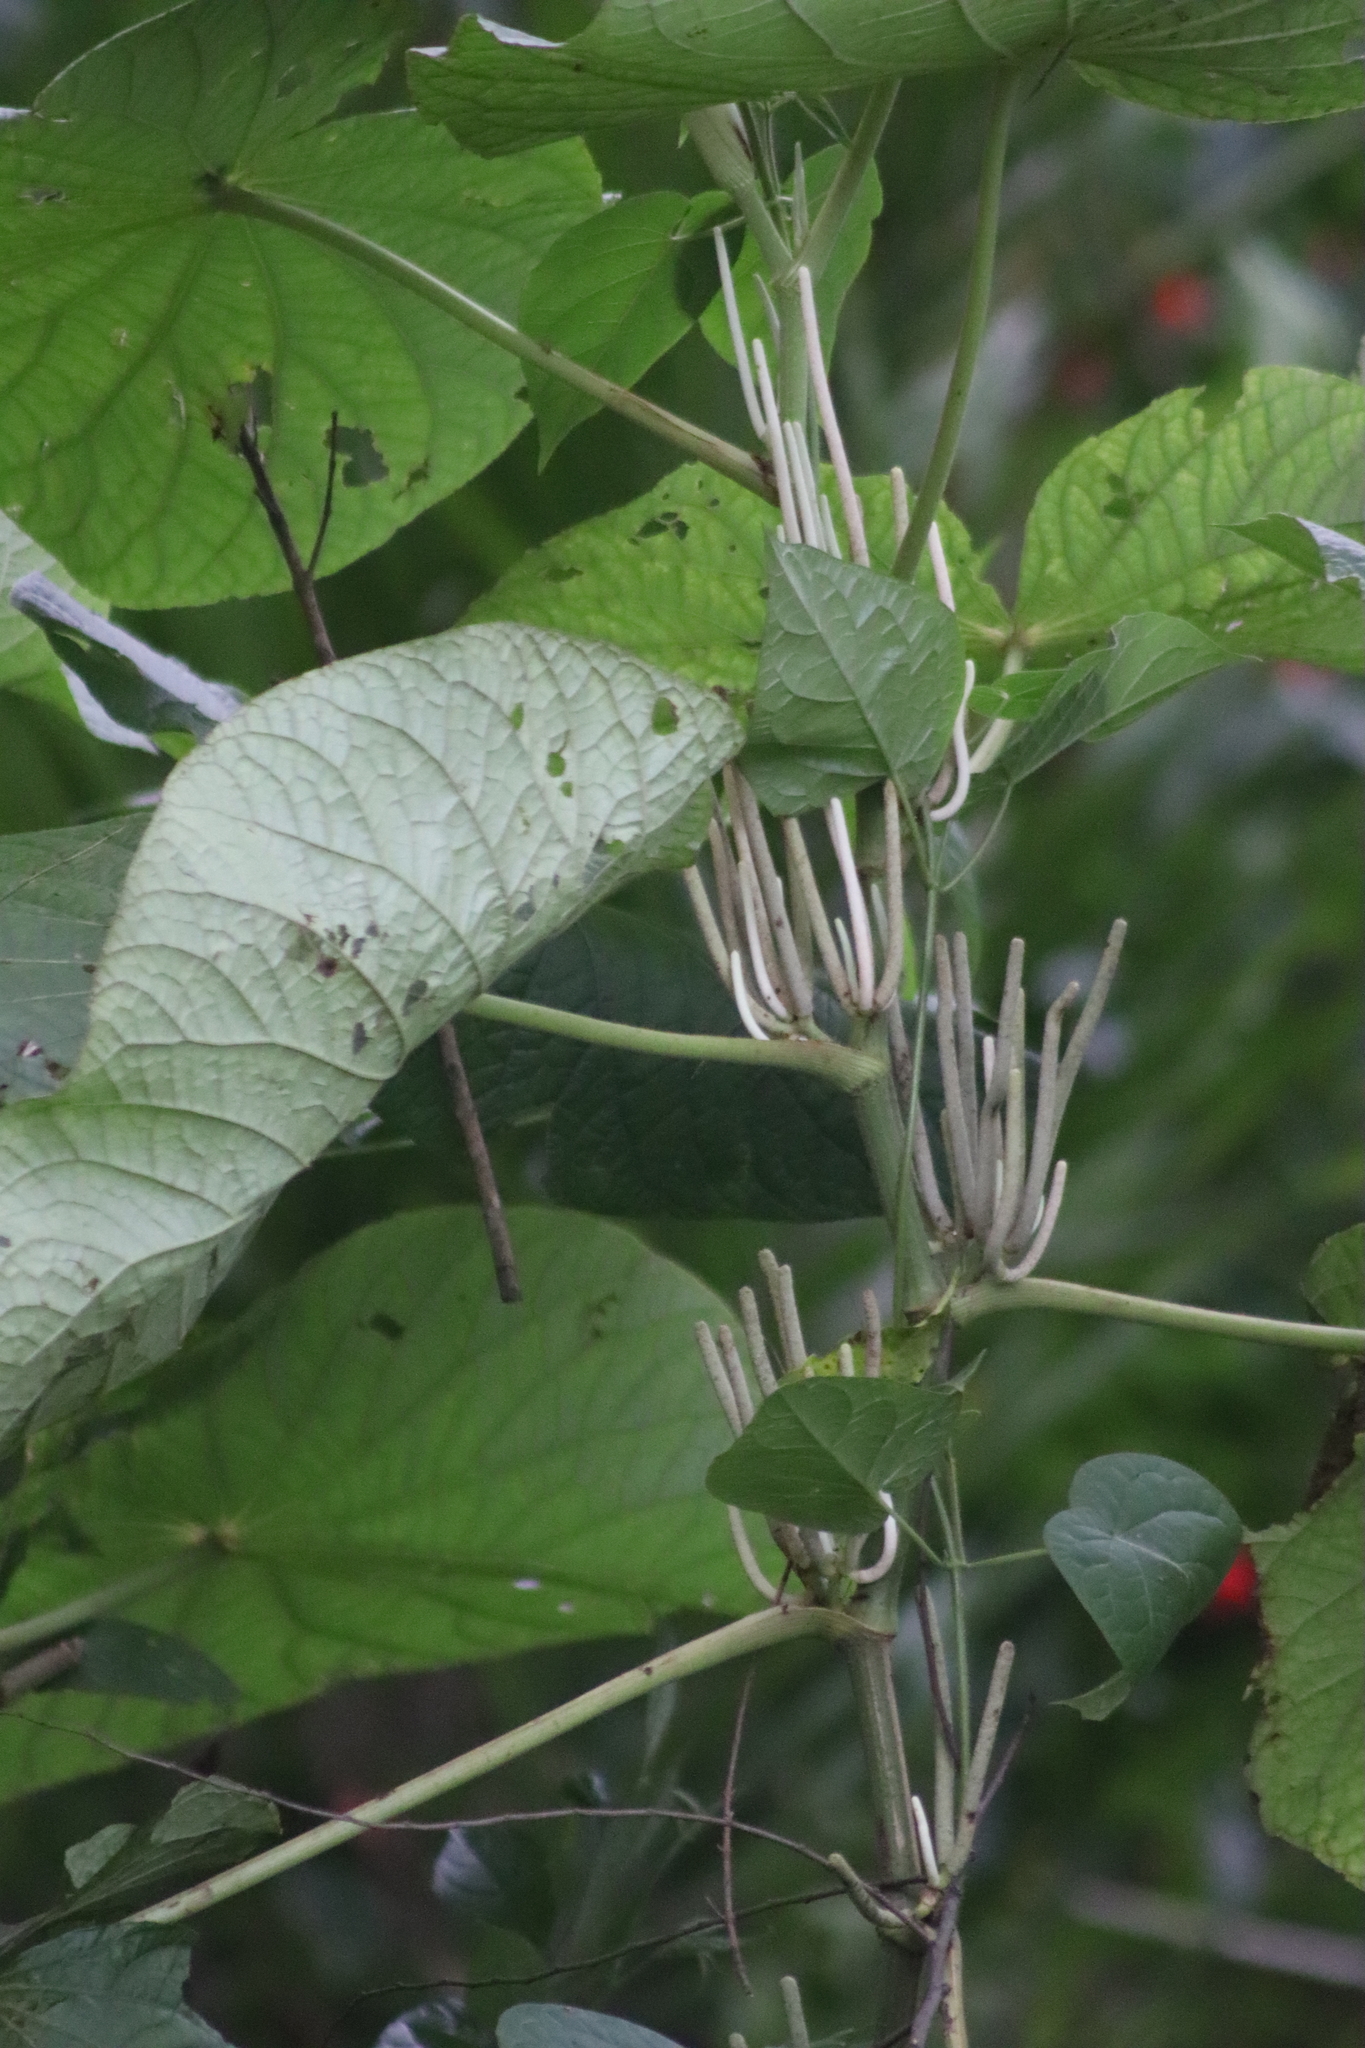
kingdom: Plantae
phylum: Tracheophyta
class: Magnoliopsida
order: Piperales
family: Piperaceae
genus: Piper
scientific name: Piper umbellatum
